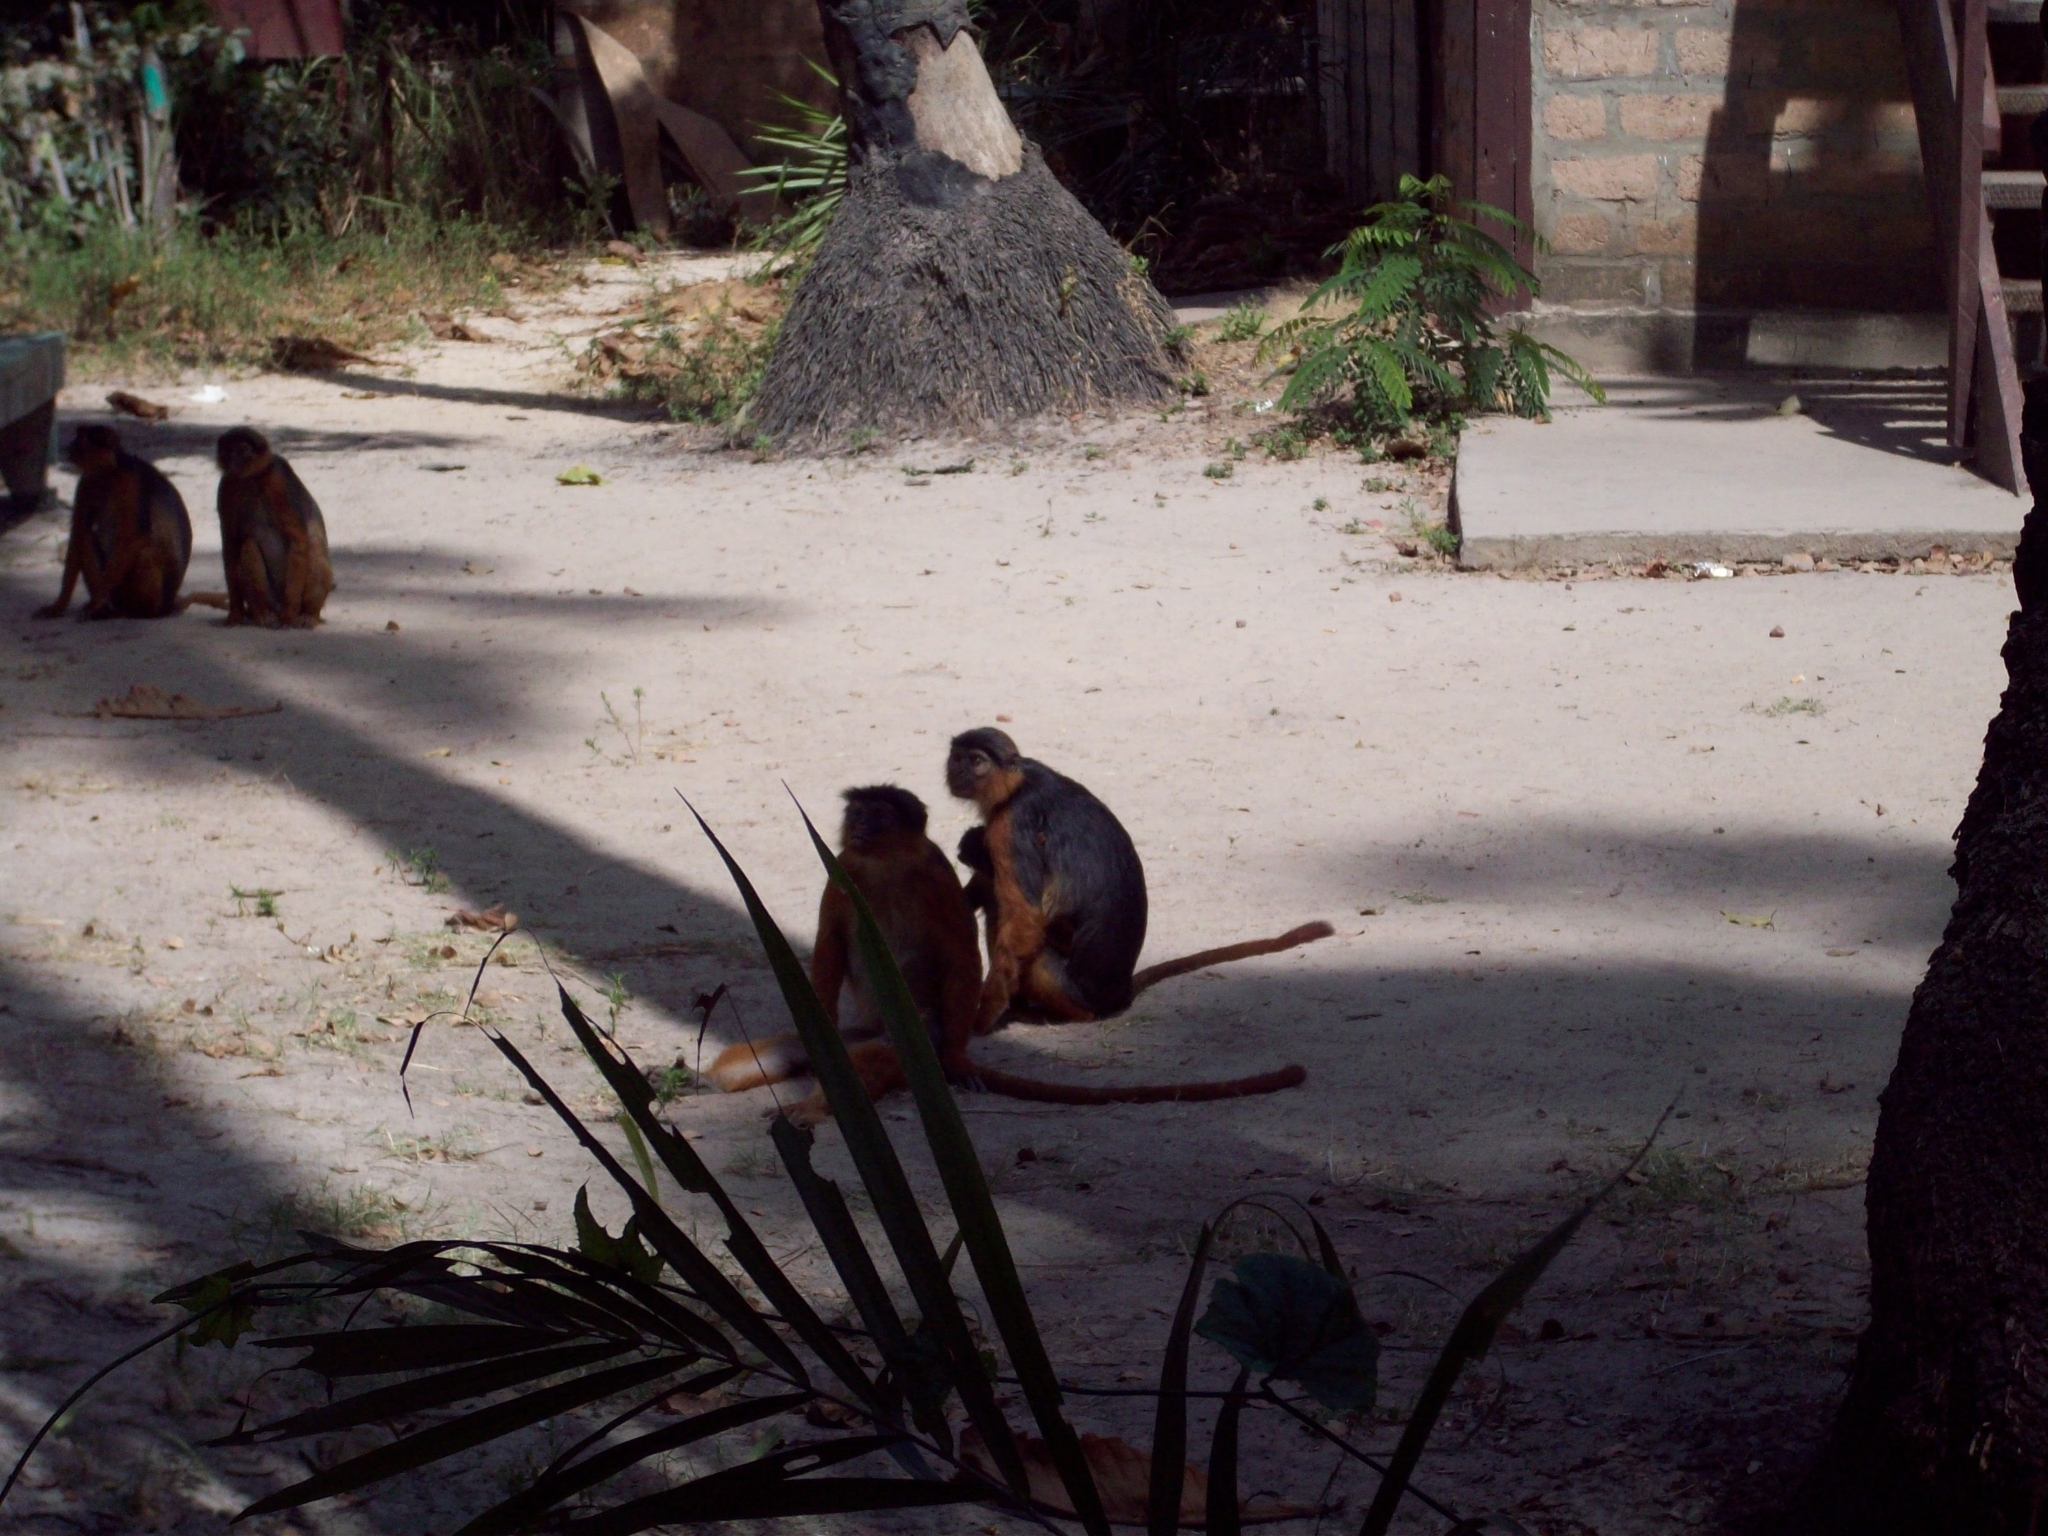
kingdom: Animalia
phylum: Chordata
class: Mammalia
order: Primates
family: Cercopithecidae
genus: Piliocolobus
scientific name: Piliocolobus badius
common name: Western red colobus
